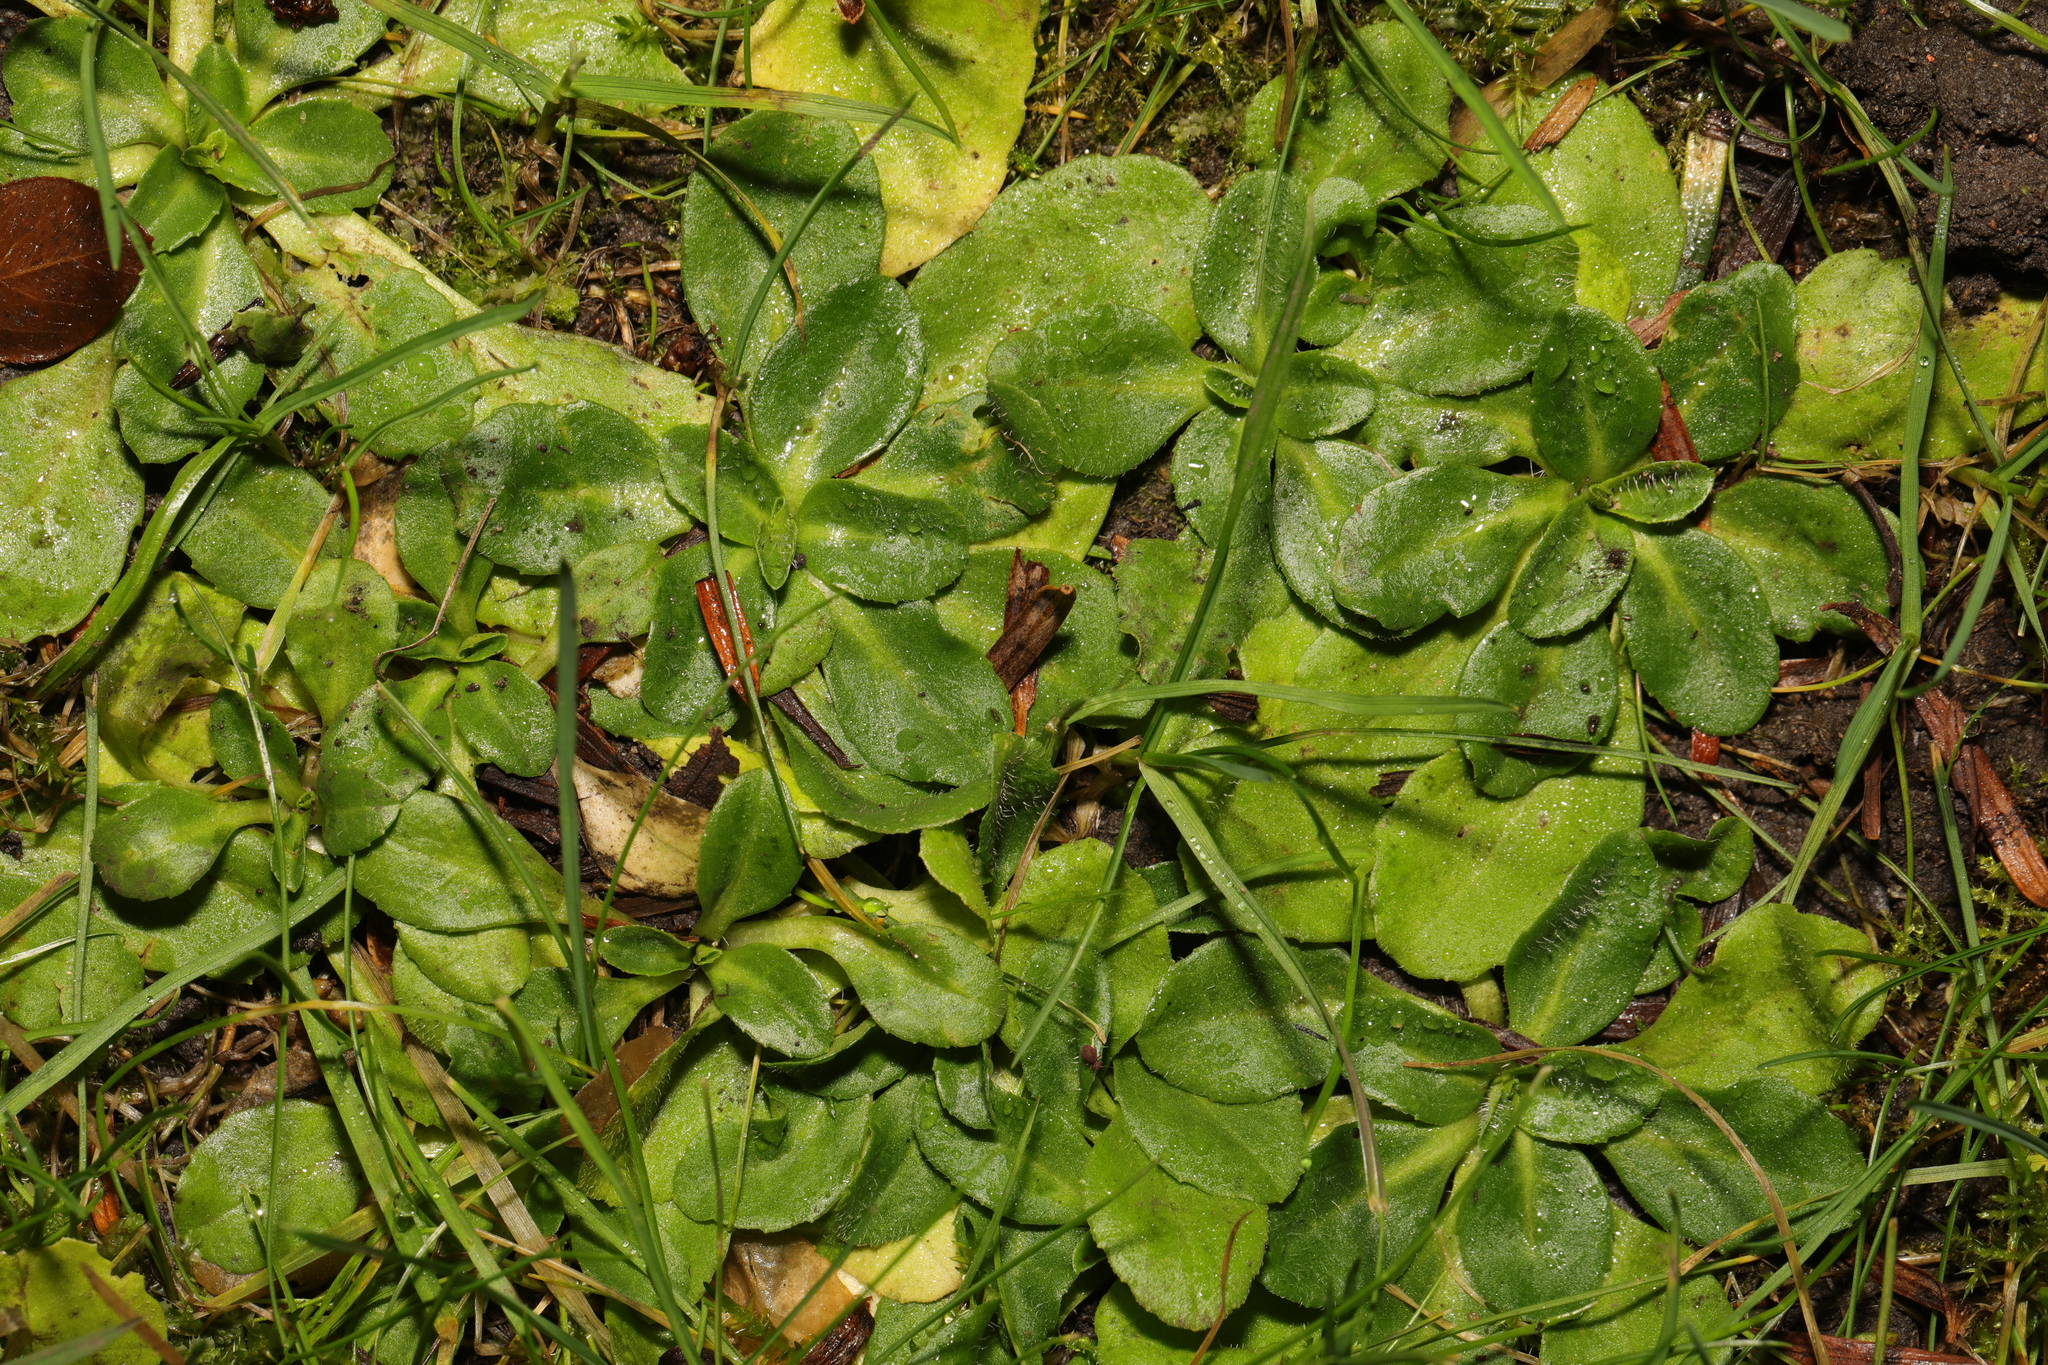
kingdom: Plantae
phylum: Tracheophyta
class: Magnoliopsida
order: Asterales
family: Asteraceae
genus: Bellis
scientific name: Bellis perennis
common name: Lawndaisy
